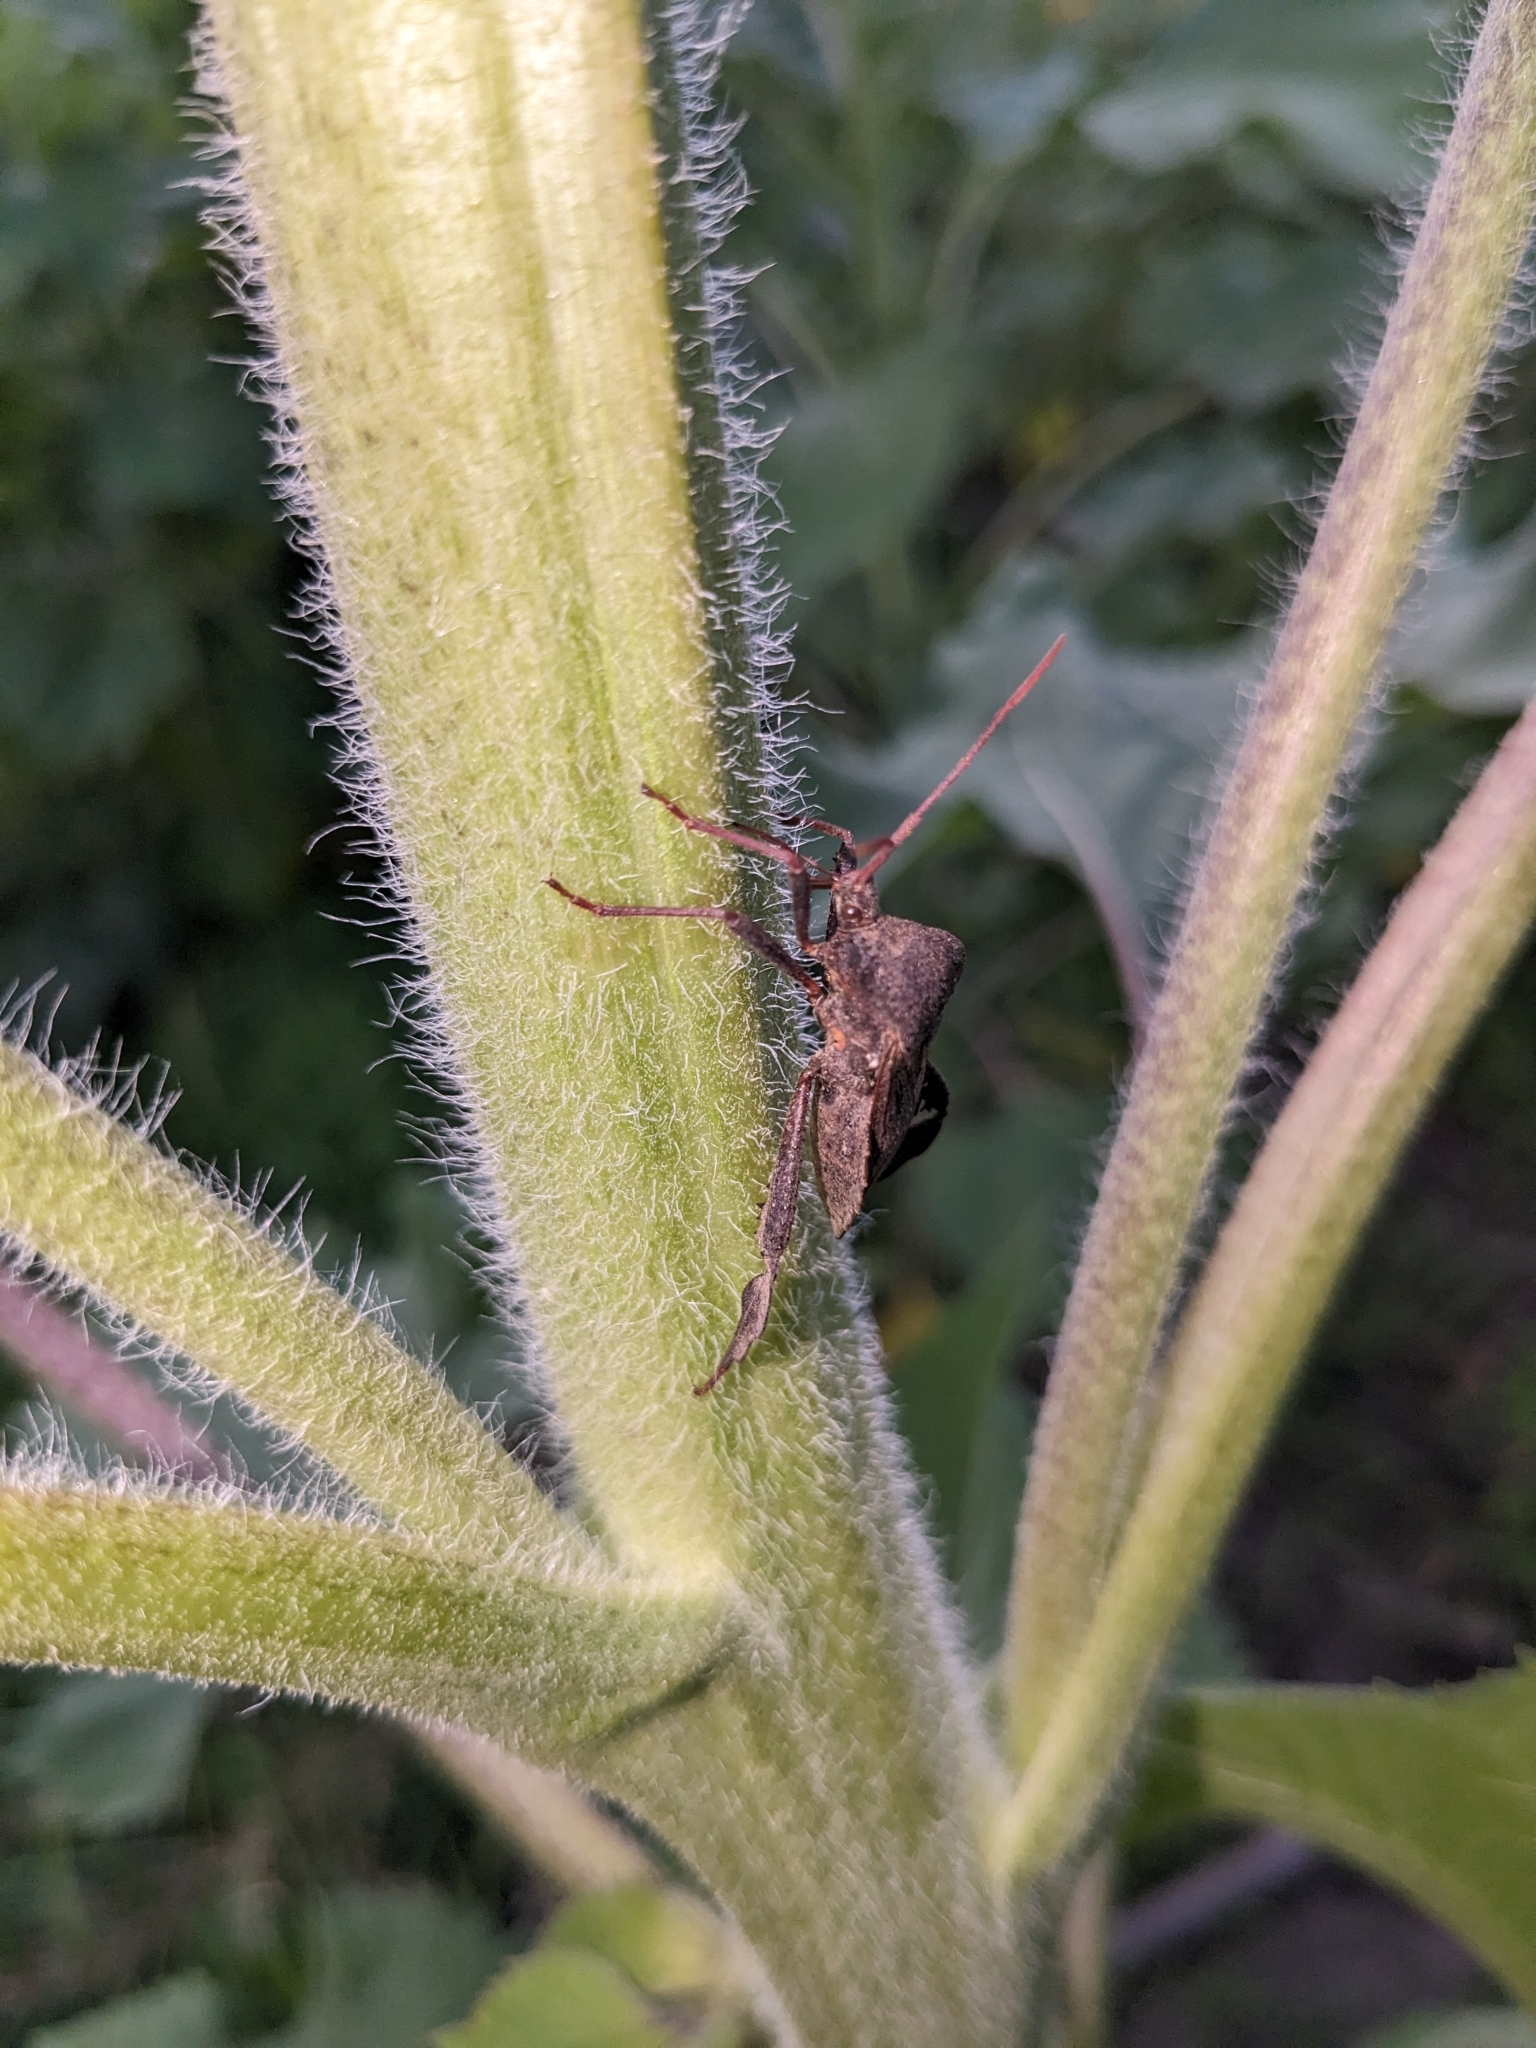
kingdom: Animalia
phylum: Arthropoda
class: Insecta
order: Hemiptera
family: Coreidae
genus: Acanthocephala
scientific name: Acanthocephala femorata
